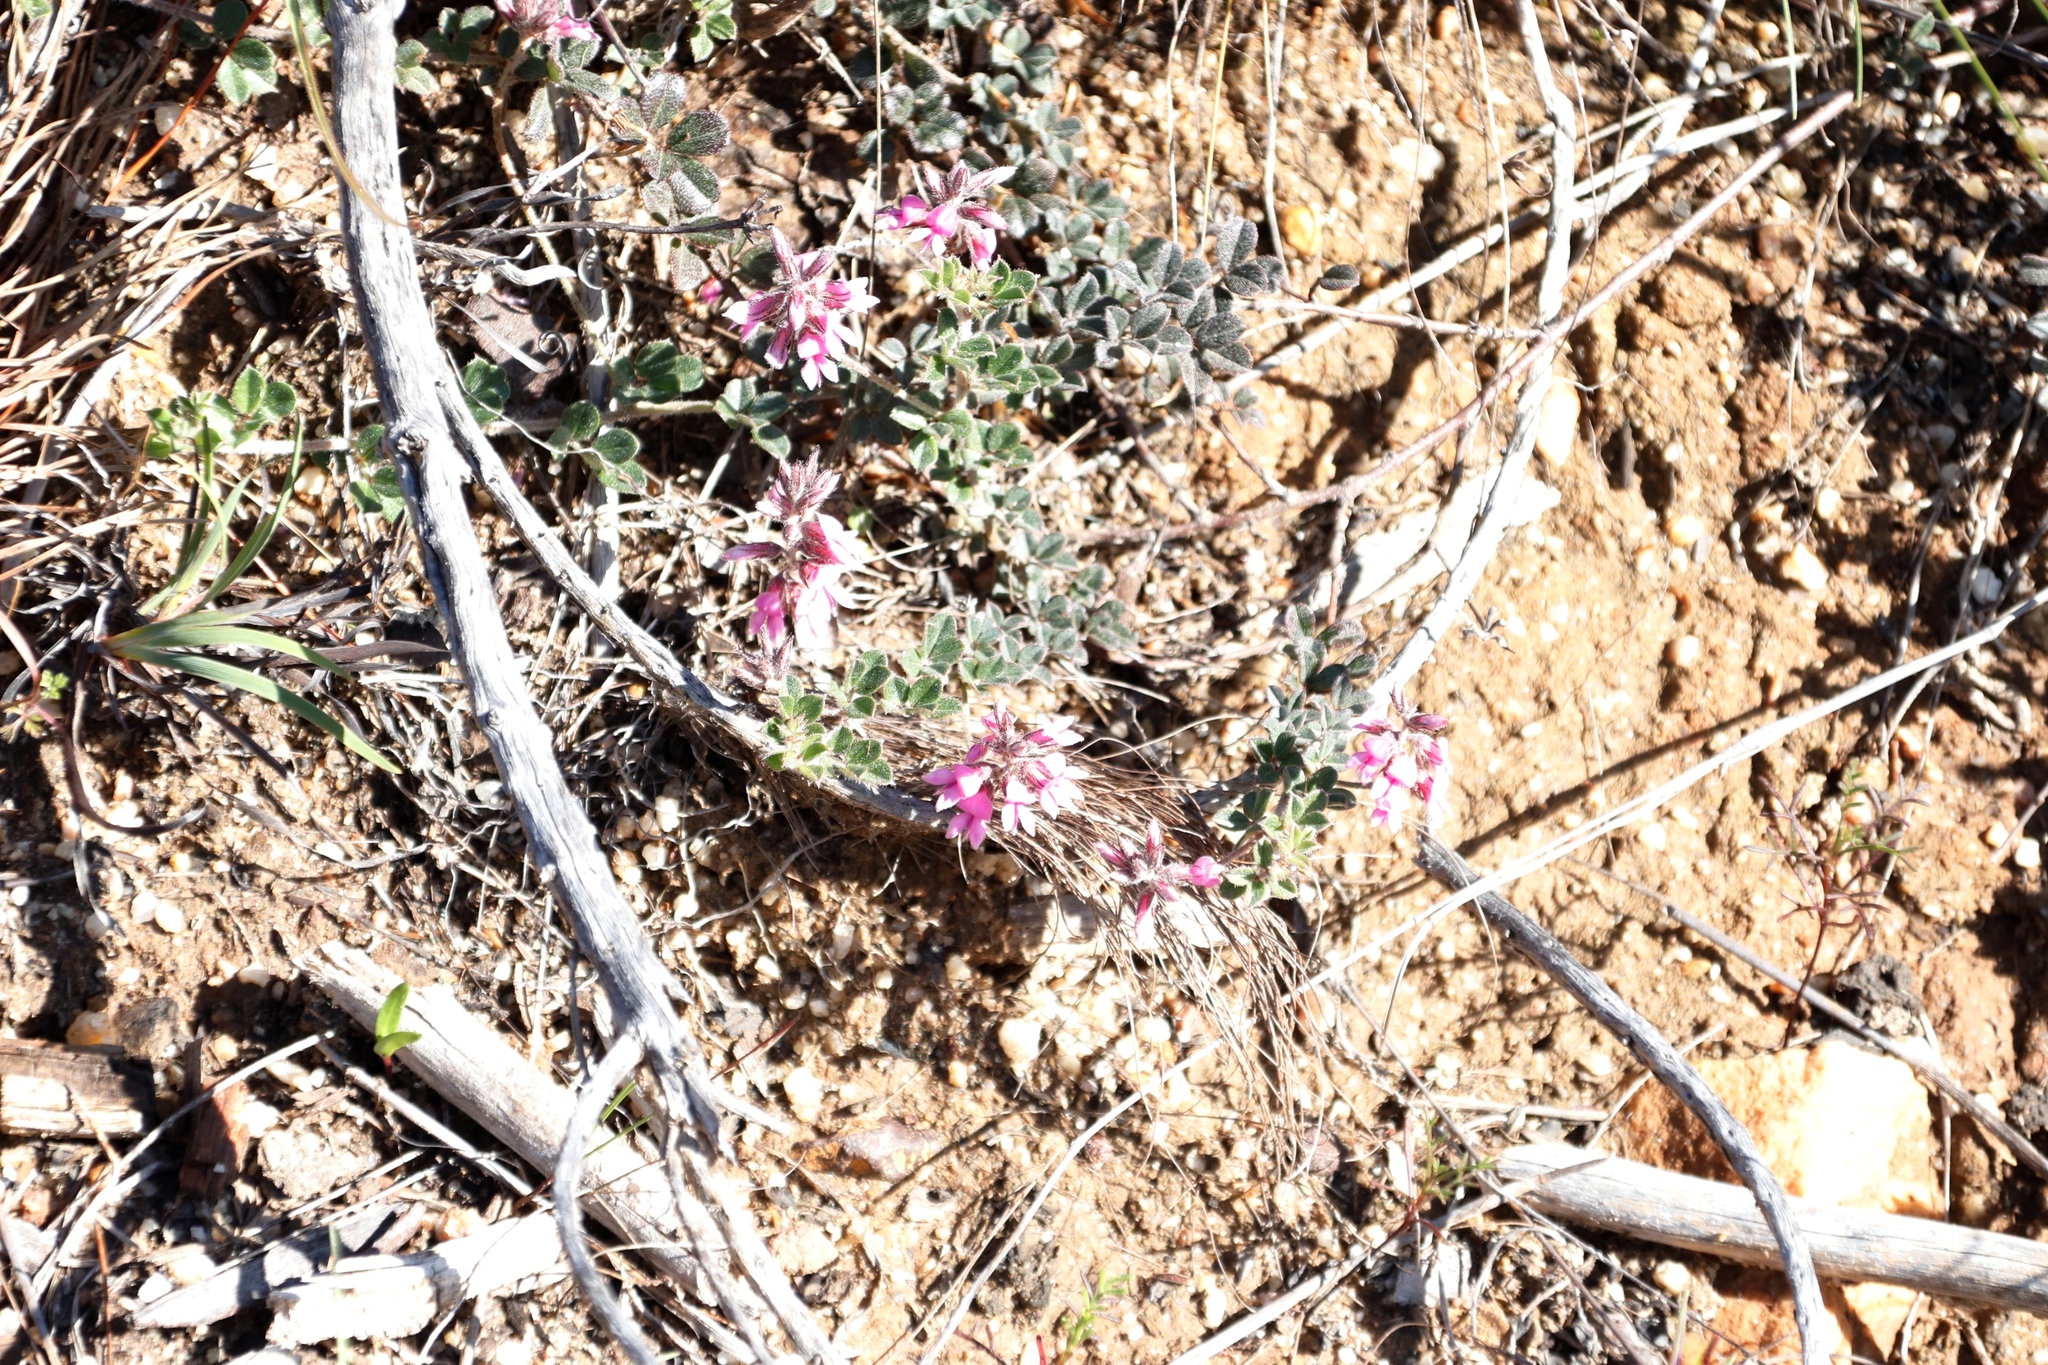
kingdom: Plantae
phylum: Tracheophyta
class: Magnoliopsida
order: Fabales
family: Fabaceae
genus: Indigofera
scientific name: Indigofera mauritanica
